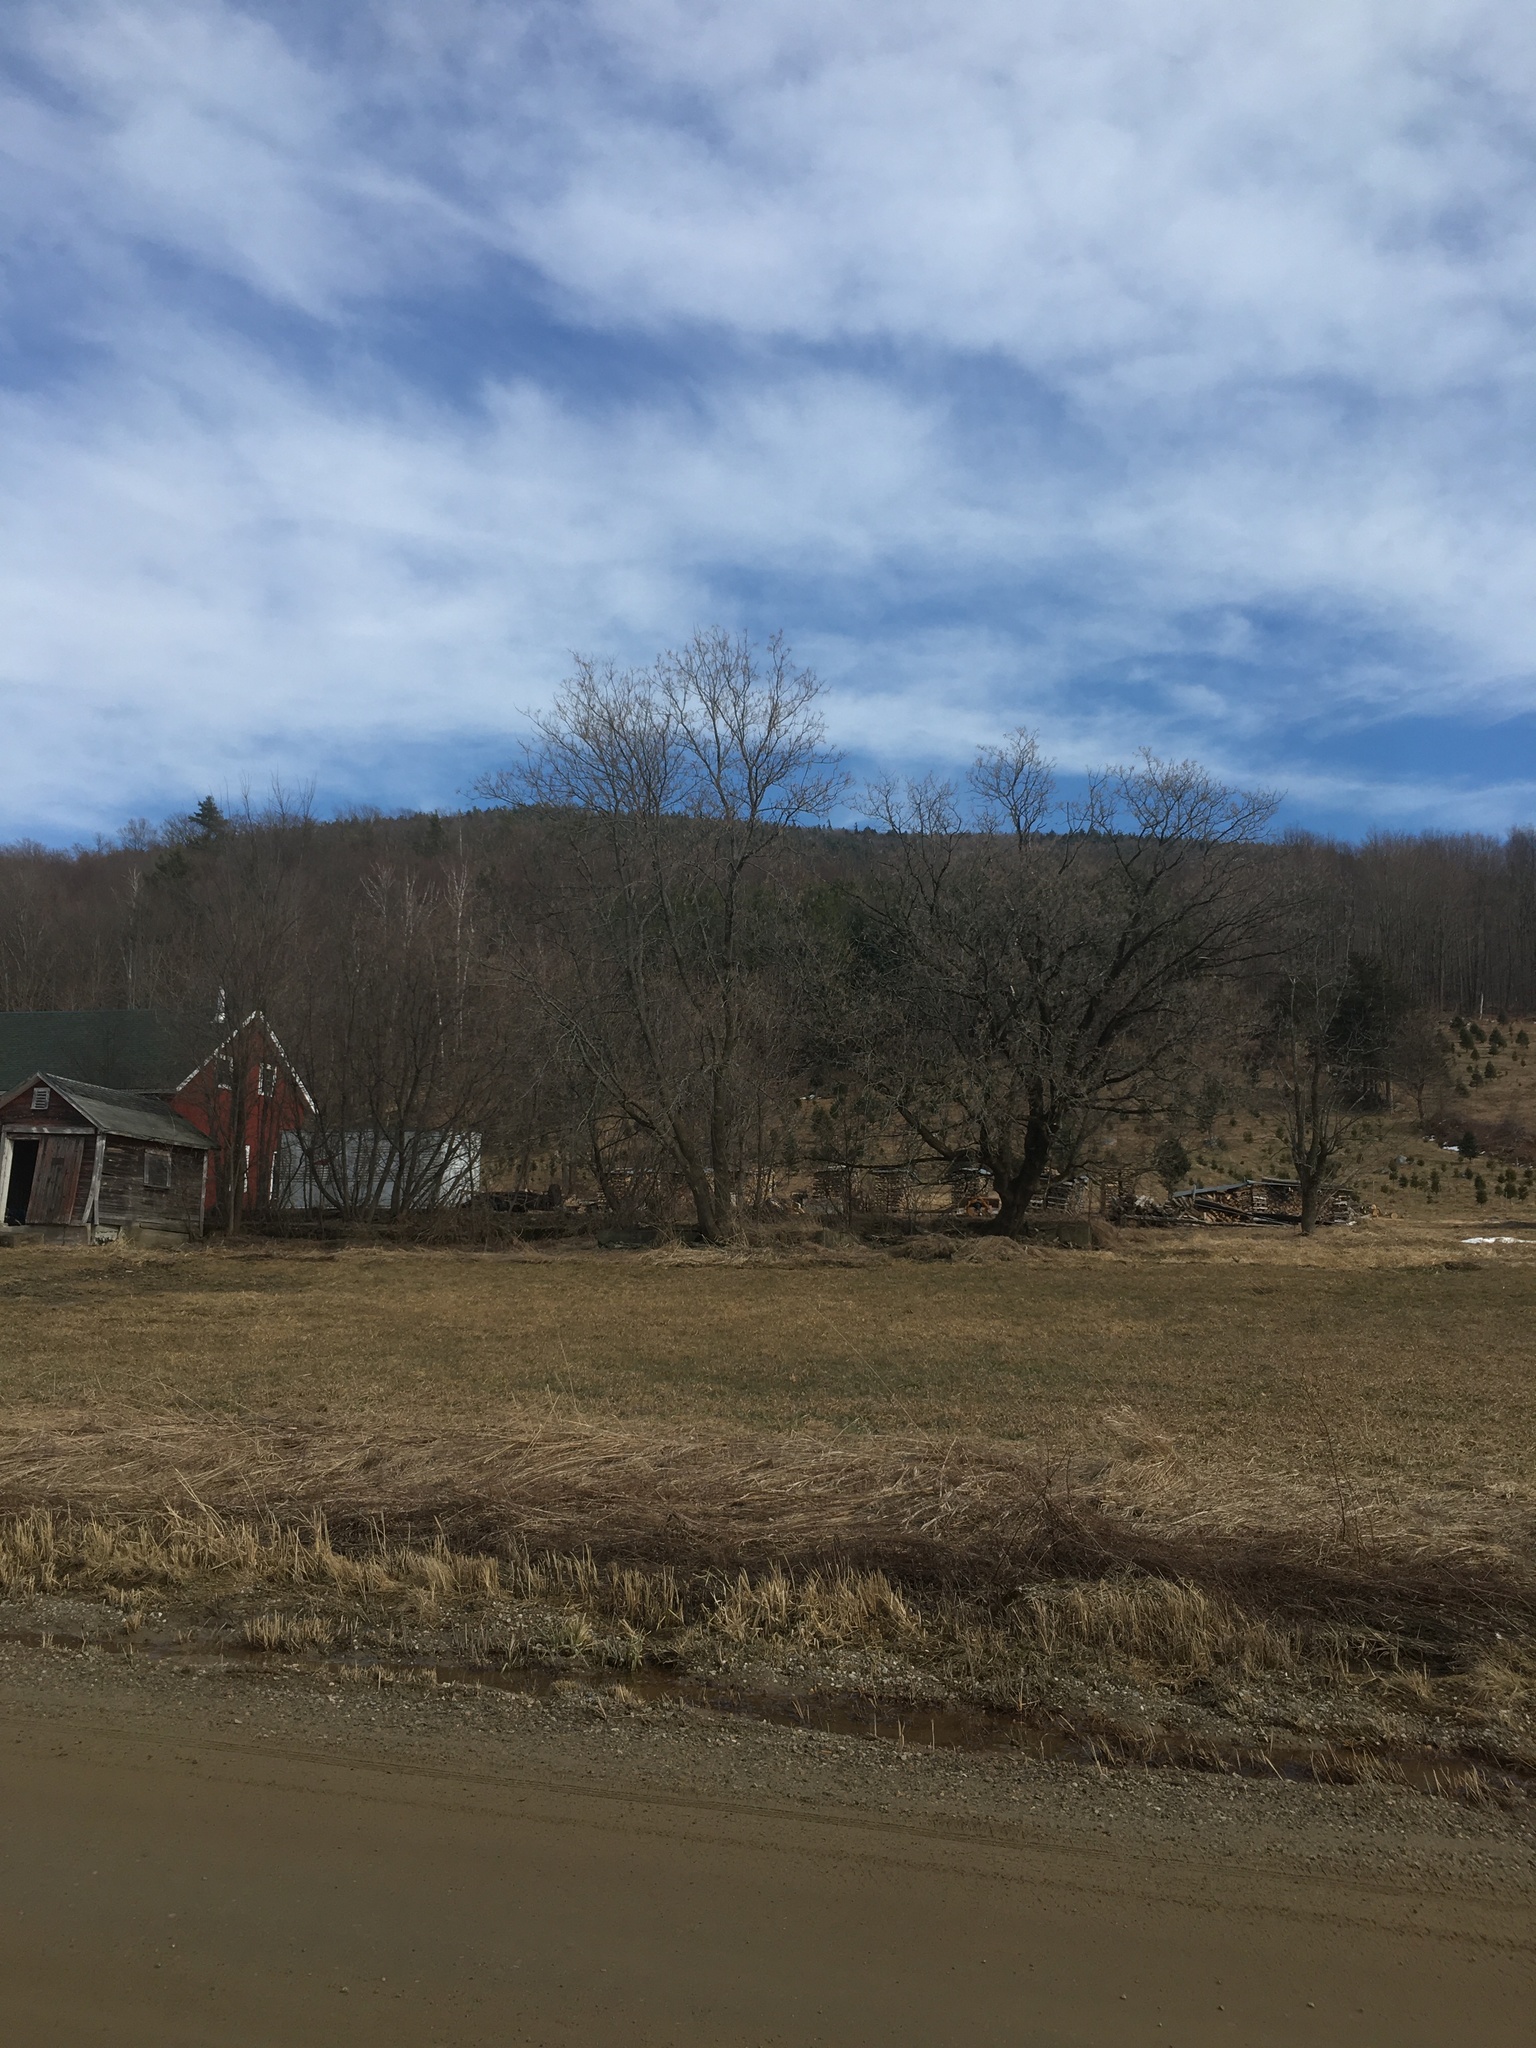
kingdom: Plantae
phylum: Tracheophyta
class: Magnoliopsida
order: Sapindales
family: Sapindaceae
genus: Acer
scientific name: Acer negundo
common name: Ashleaf maple
